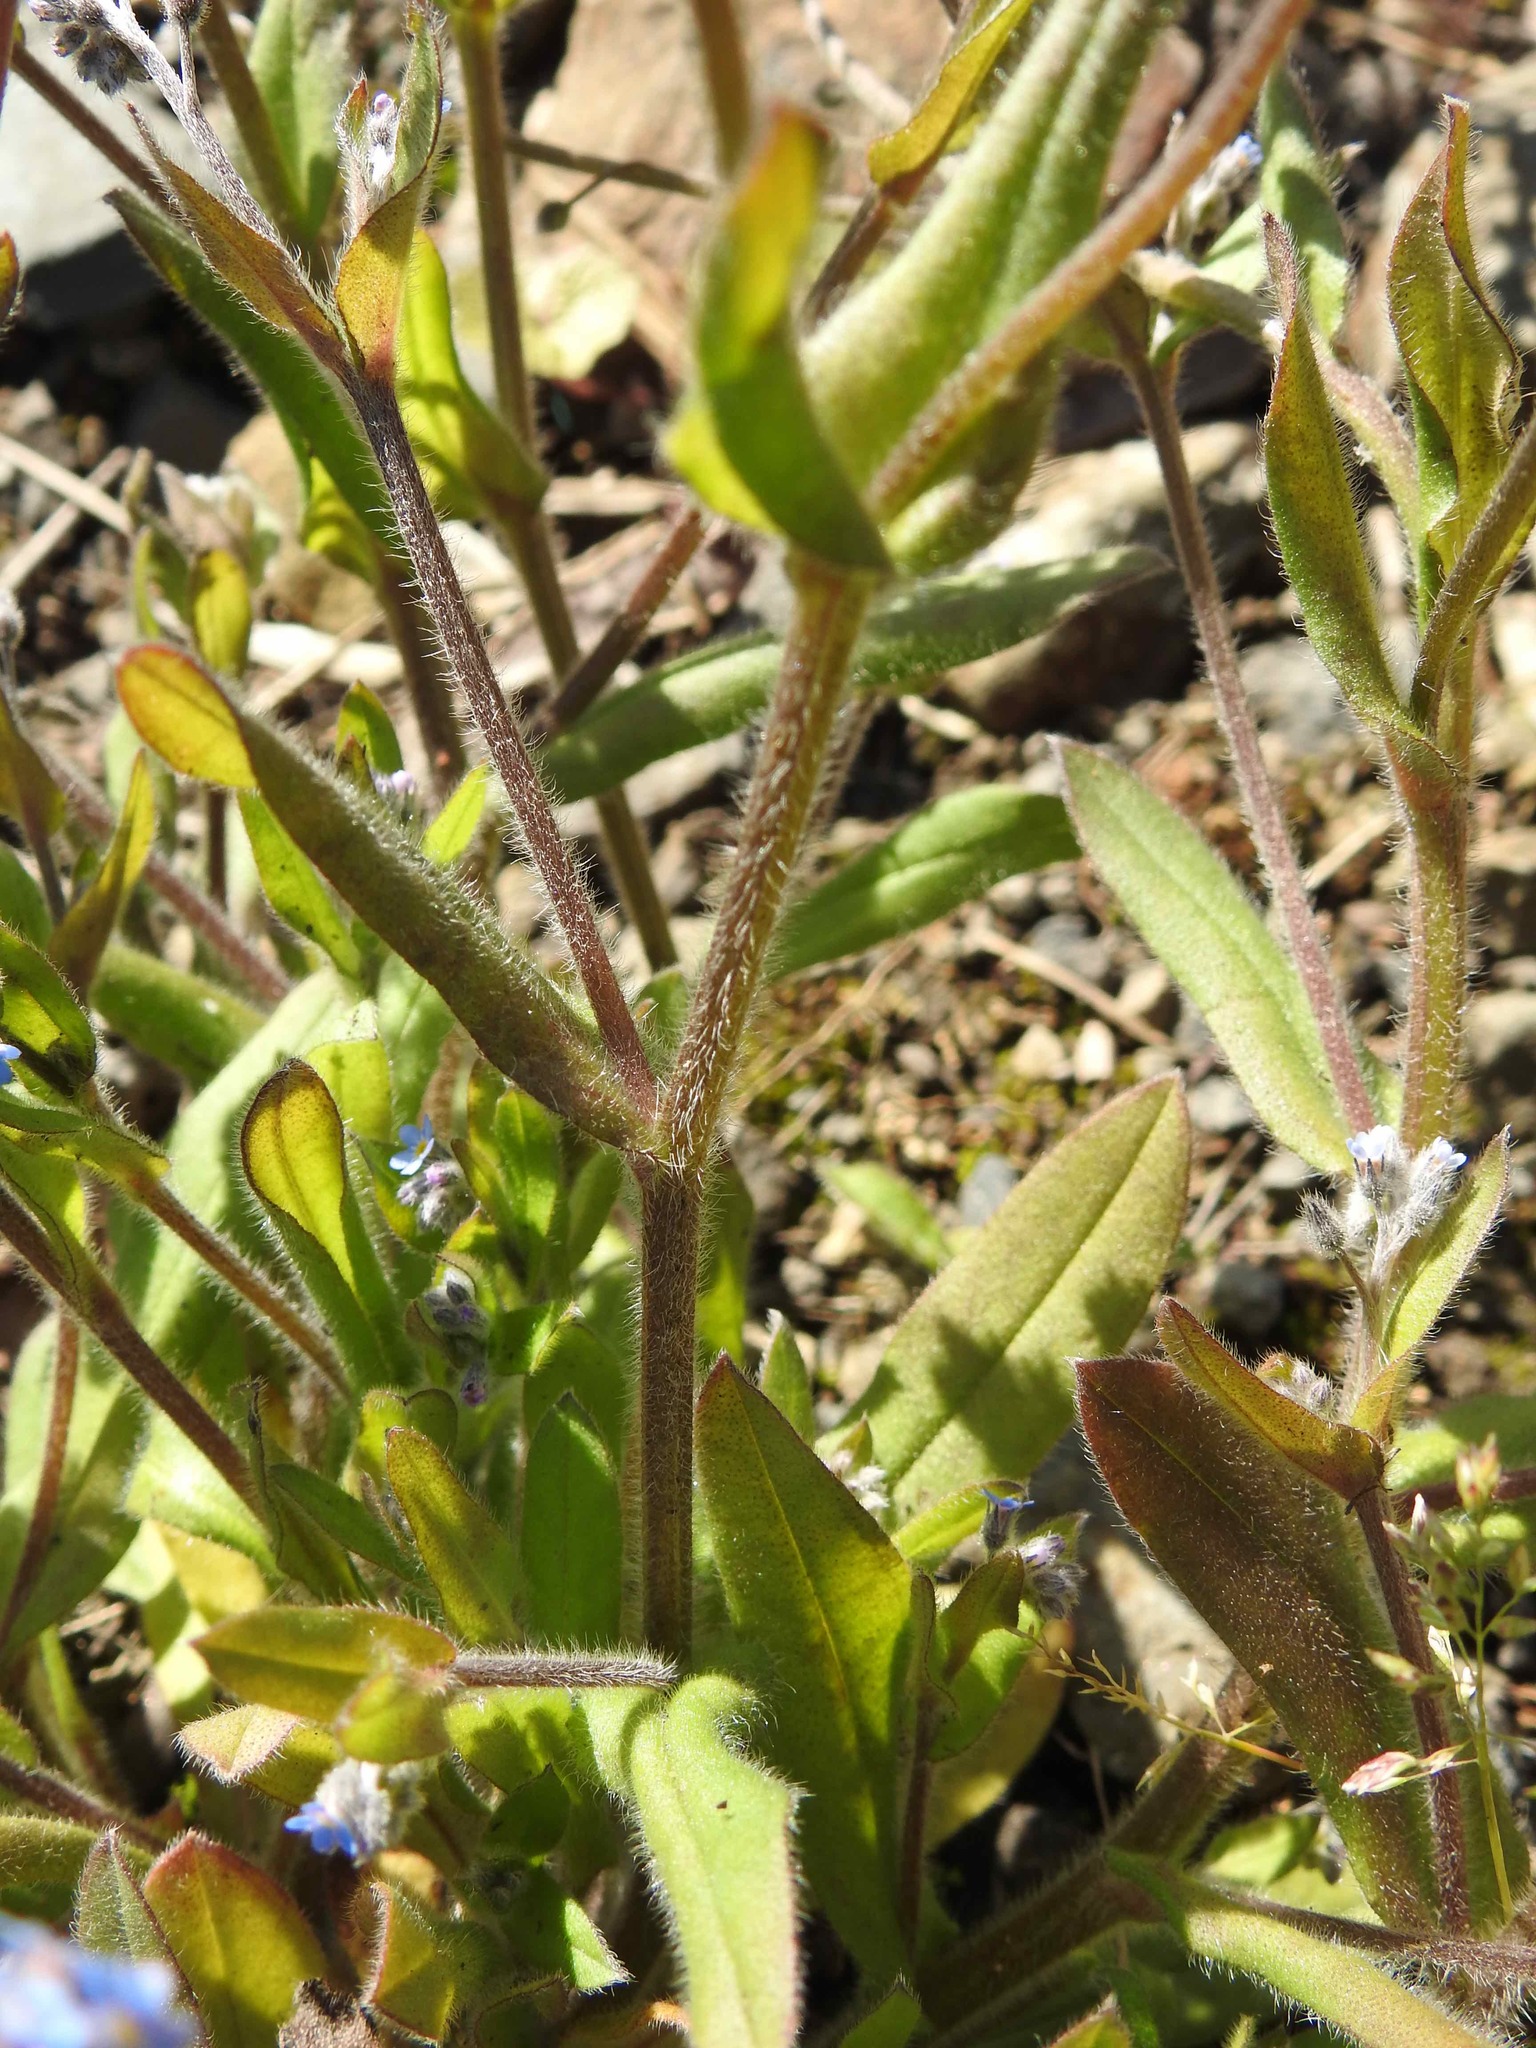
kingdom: Plantae
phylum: Tracheophyta
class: Magnoliopsida
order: Boraginales
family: Boraginaceae
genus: Myosotis
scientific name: Myosotis arvensis
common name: Field forget-me-not
